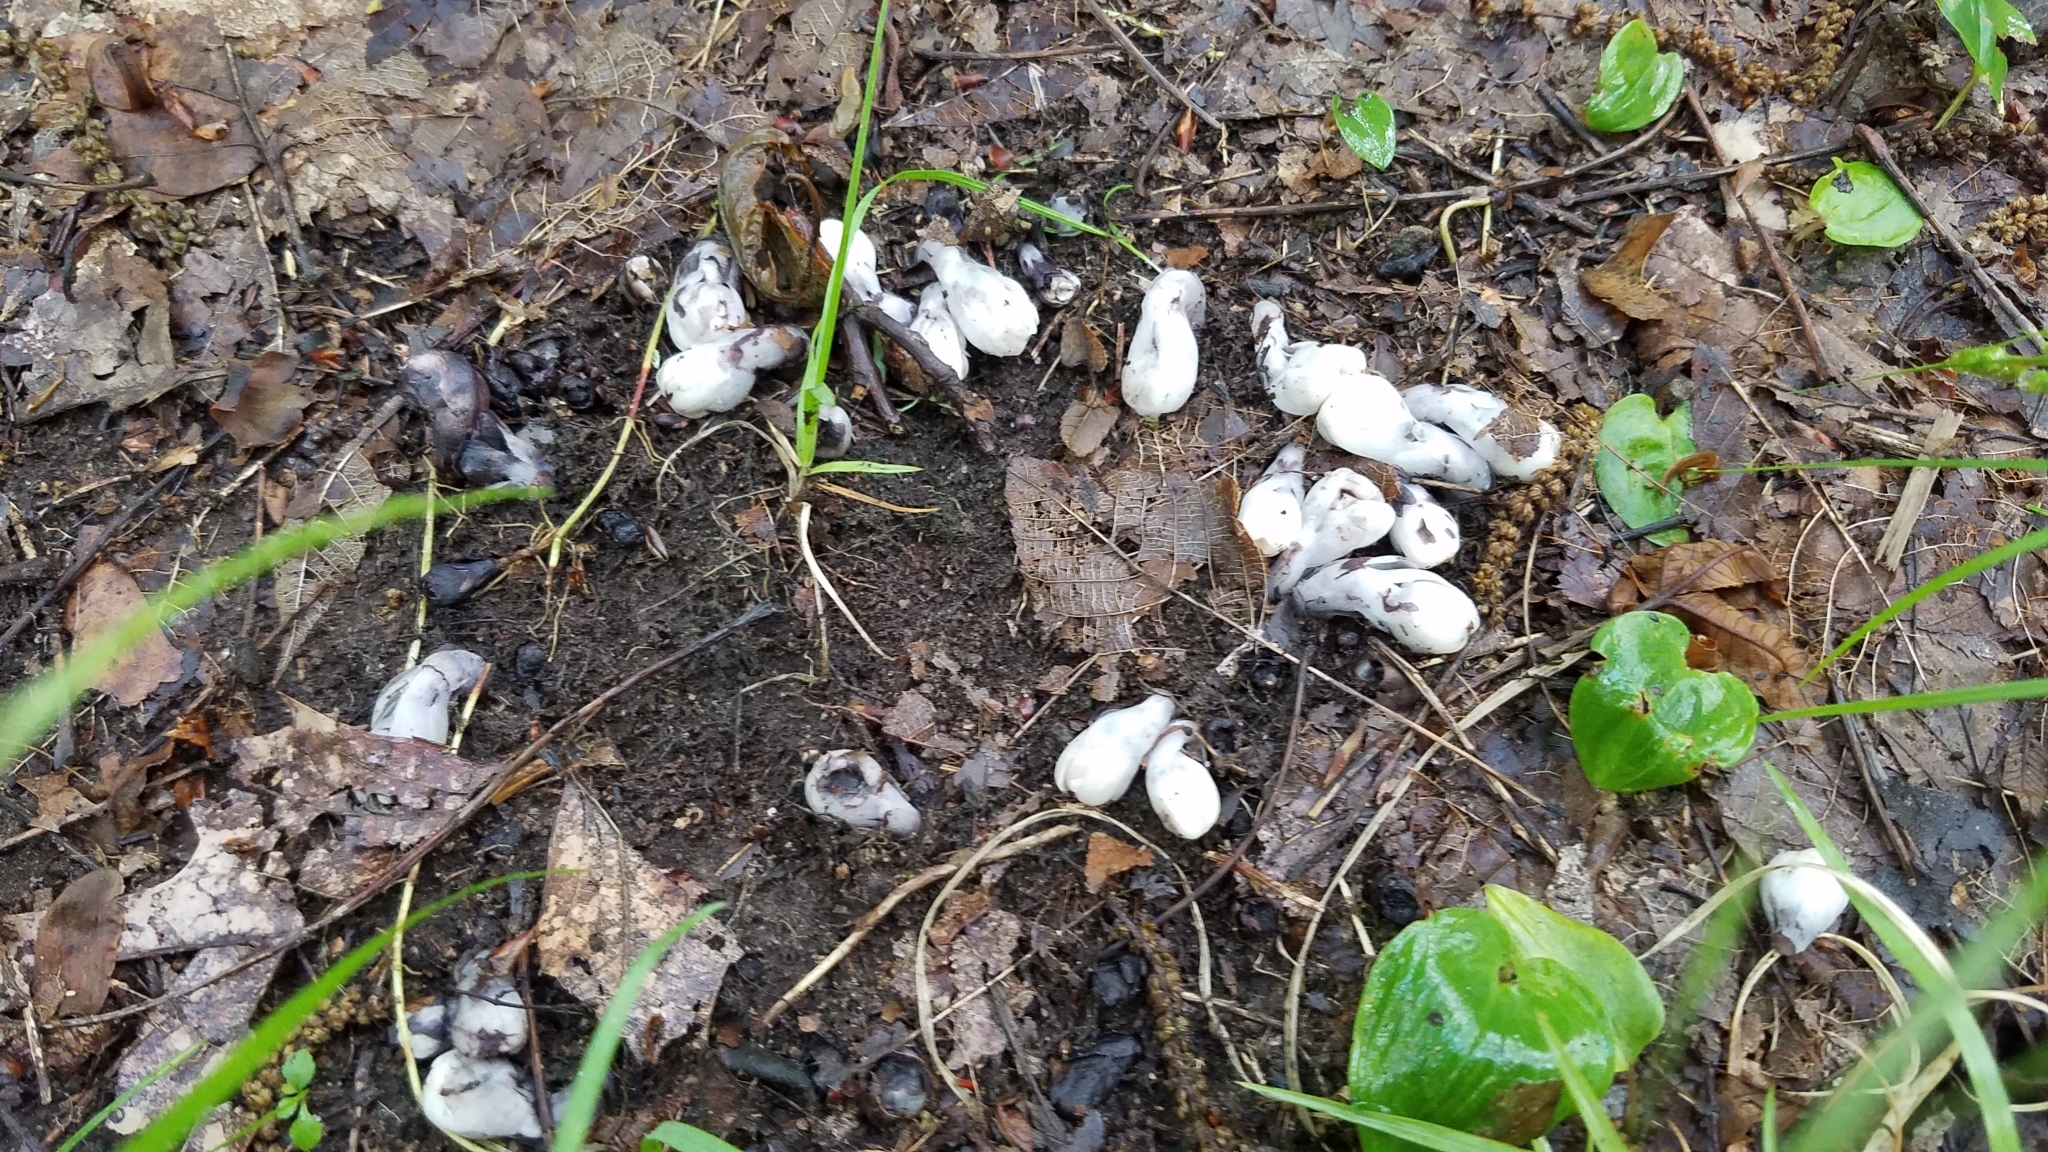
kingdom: Plantae
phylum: Tracheophyta
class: Magnoliopsida
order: Ericales
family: Ericaceae
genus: Monotropa
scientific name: Monotropa uniflora
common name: Convulsion root
